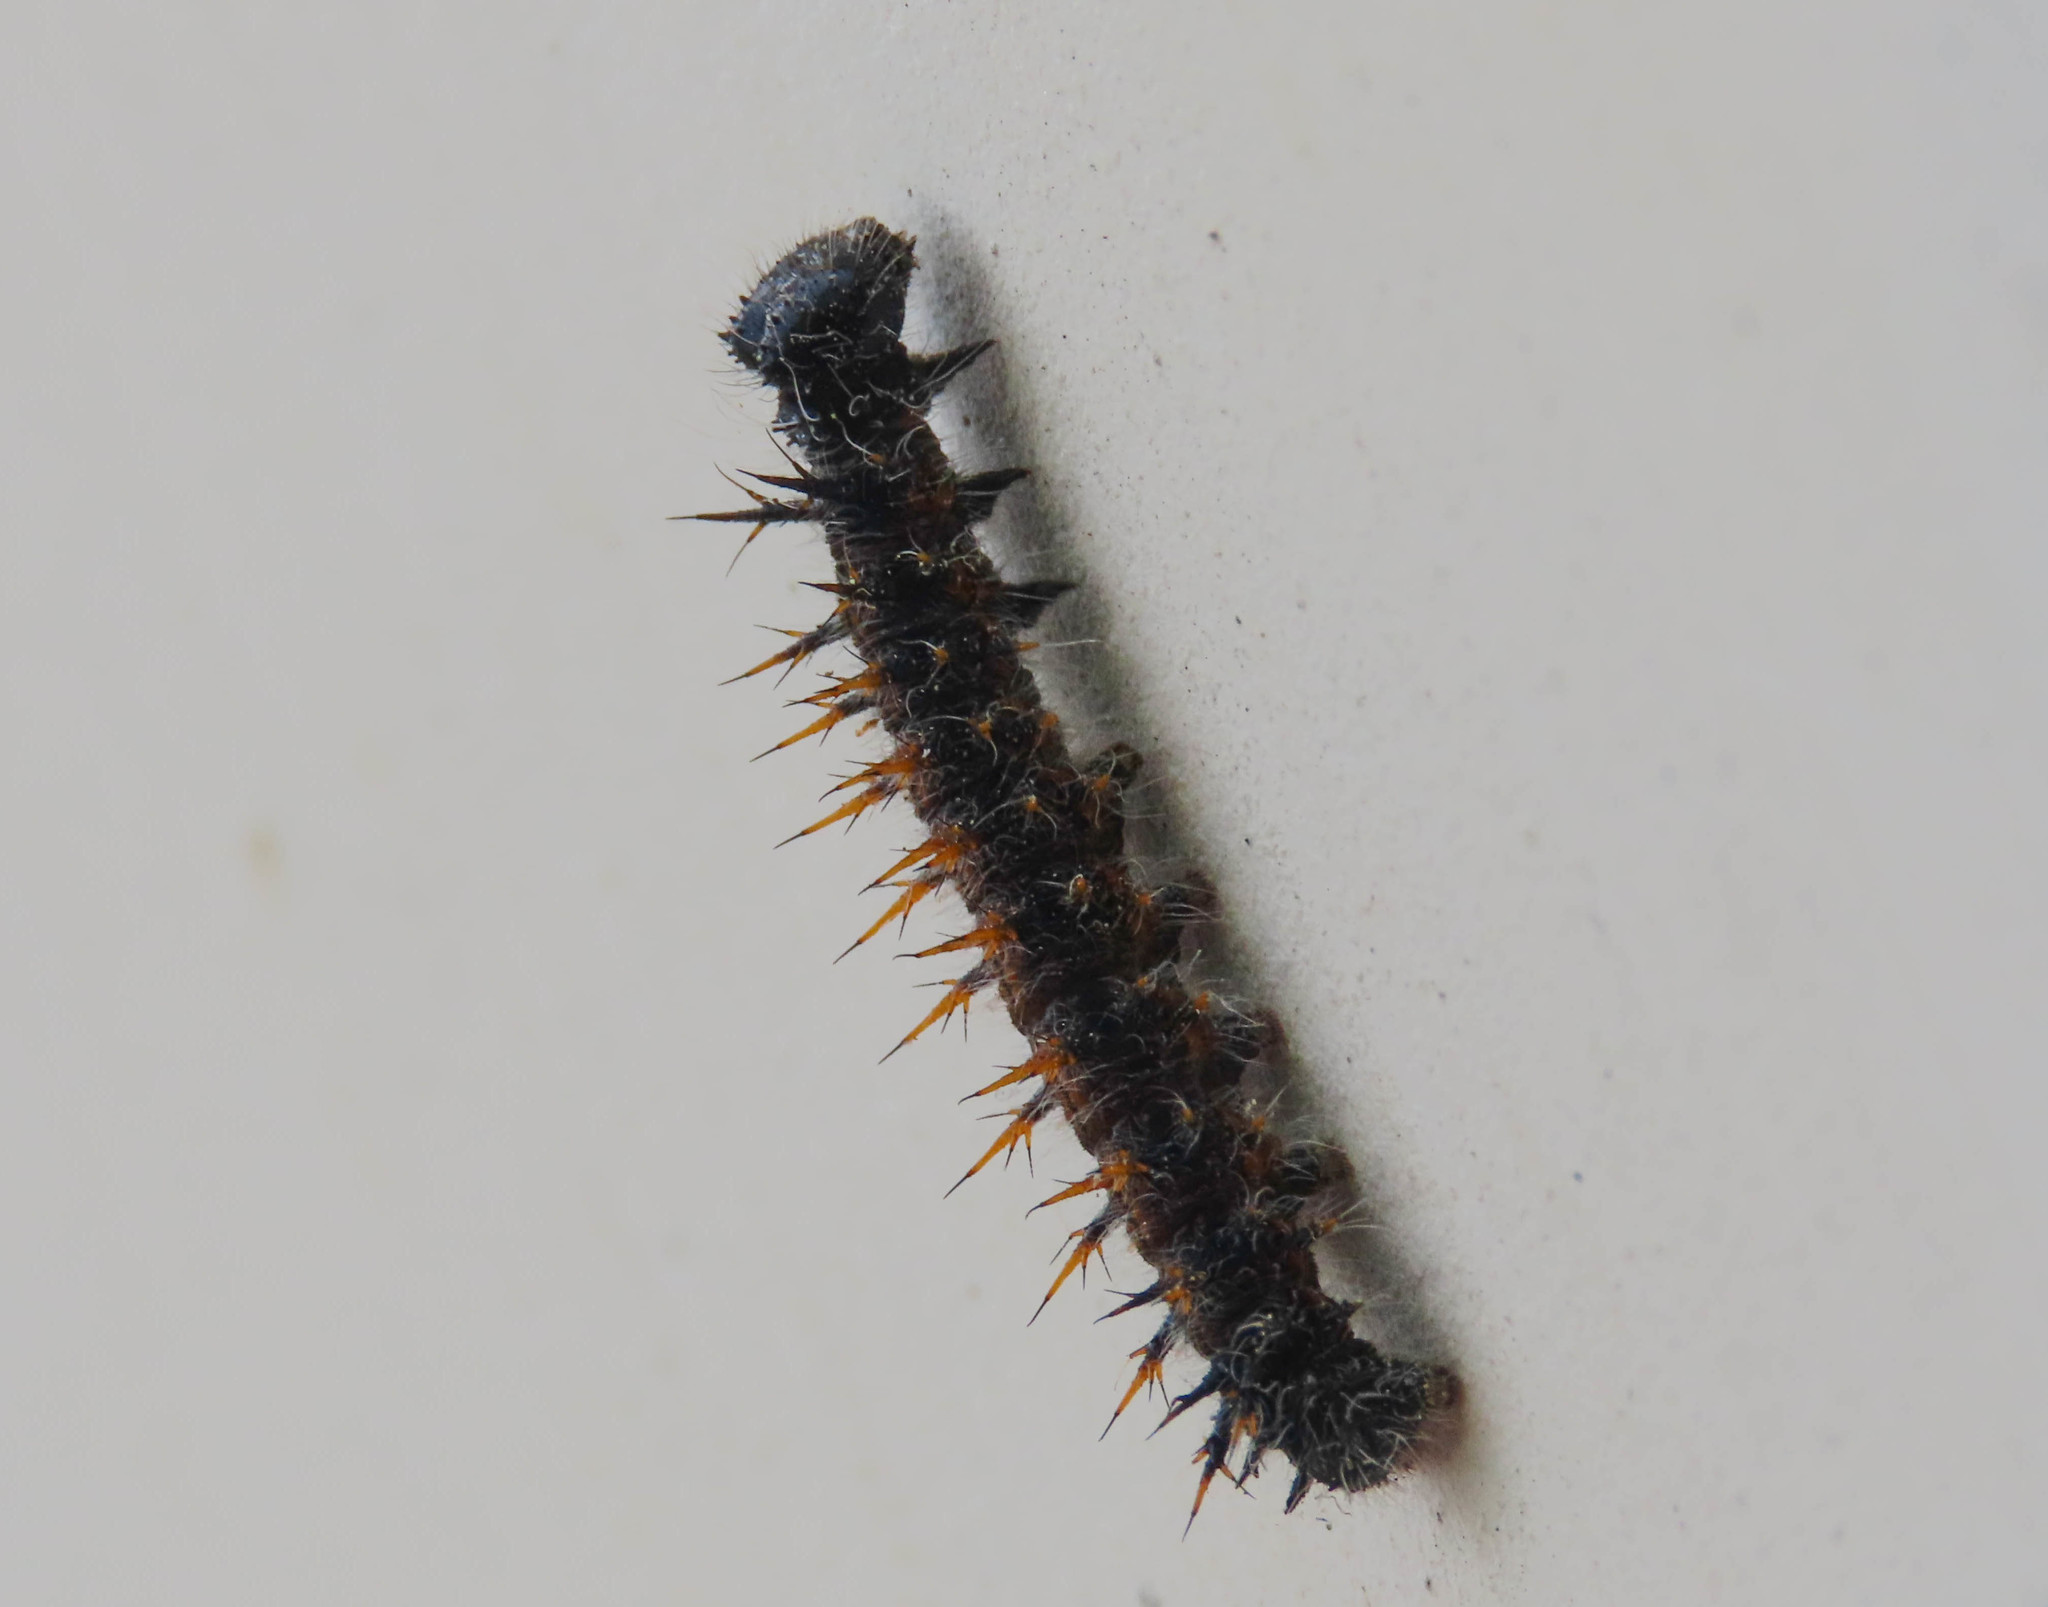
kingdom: Animalia
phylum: Arthropoda
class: Insecta
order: Lepidoptera
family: Nymphalidae
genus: Nymphalis
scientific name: Nymphalis polychloros
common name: Large tortoiseshell
